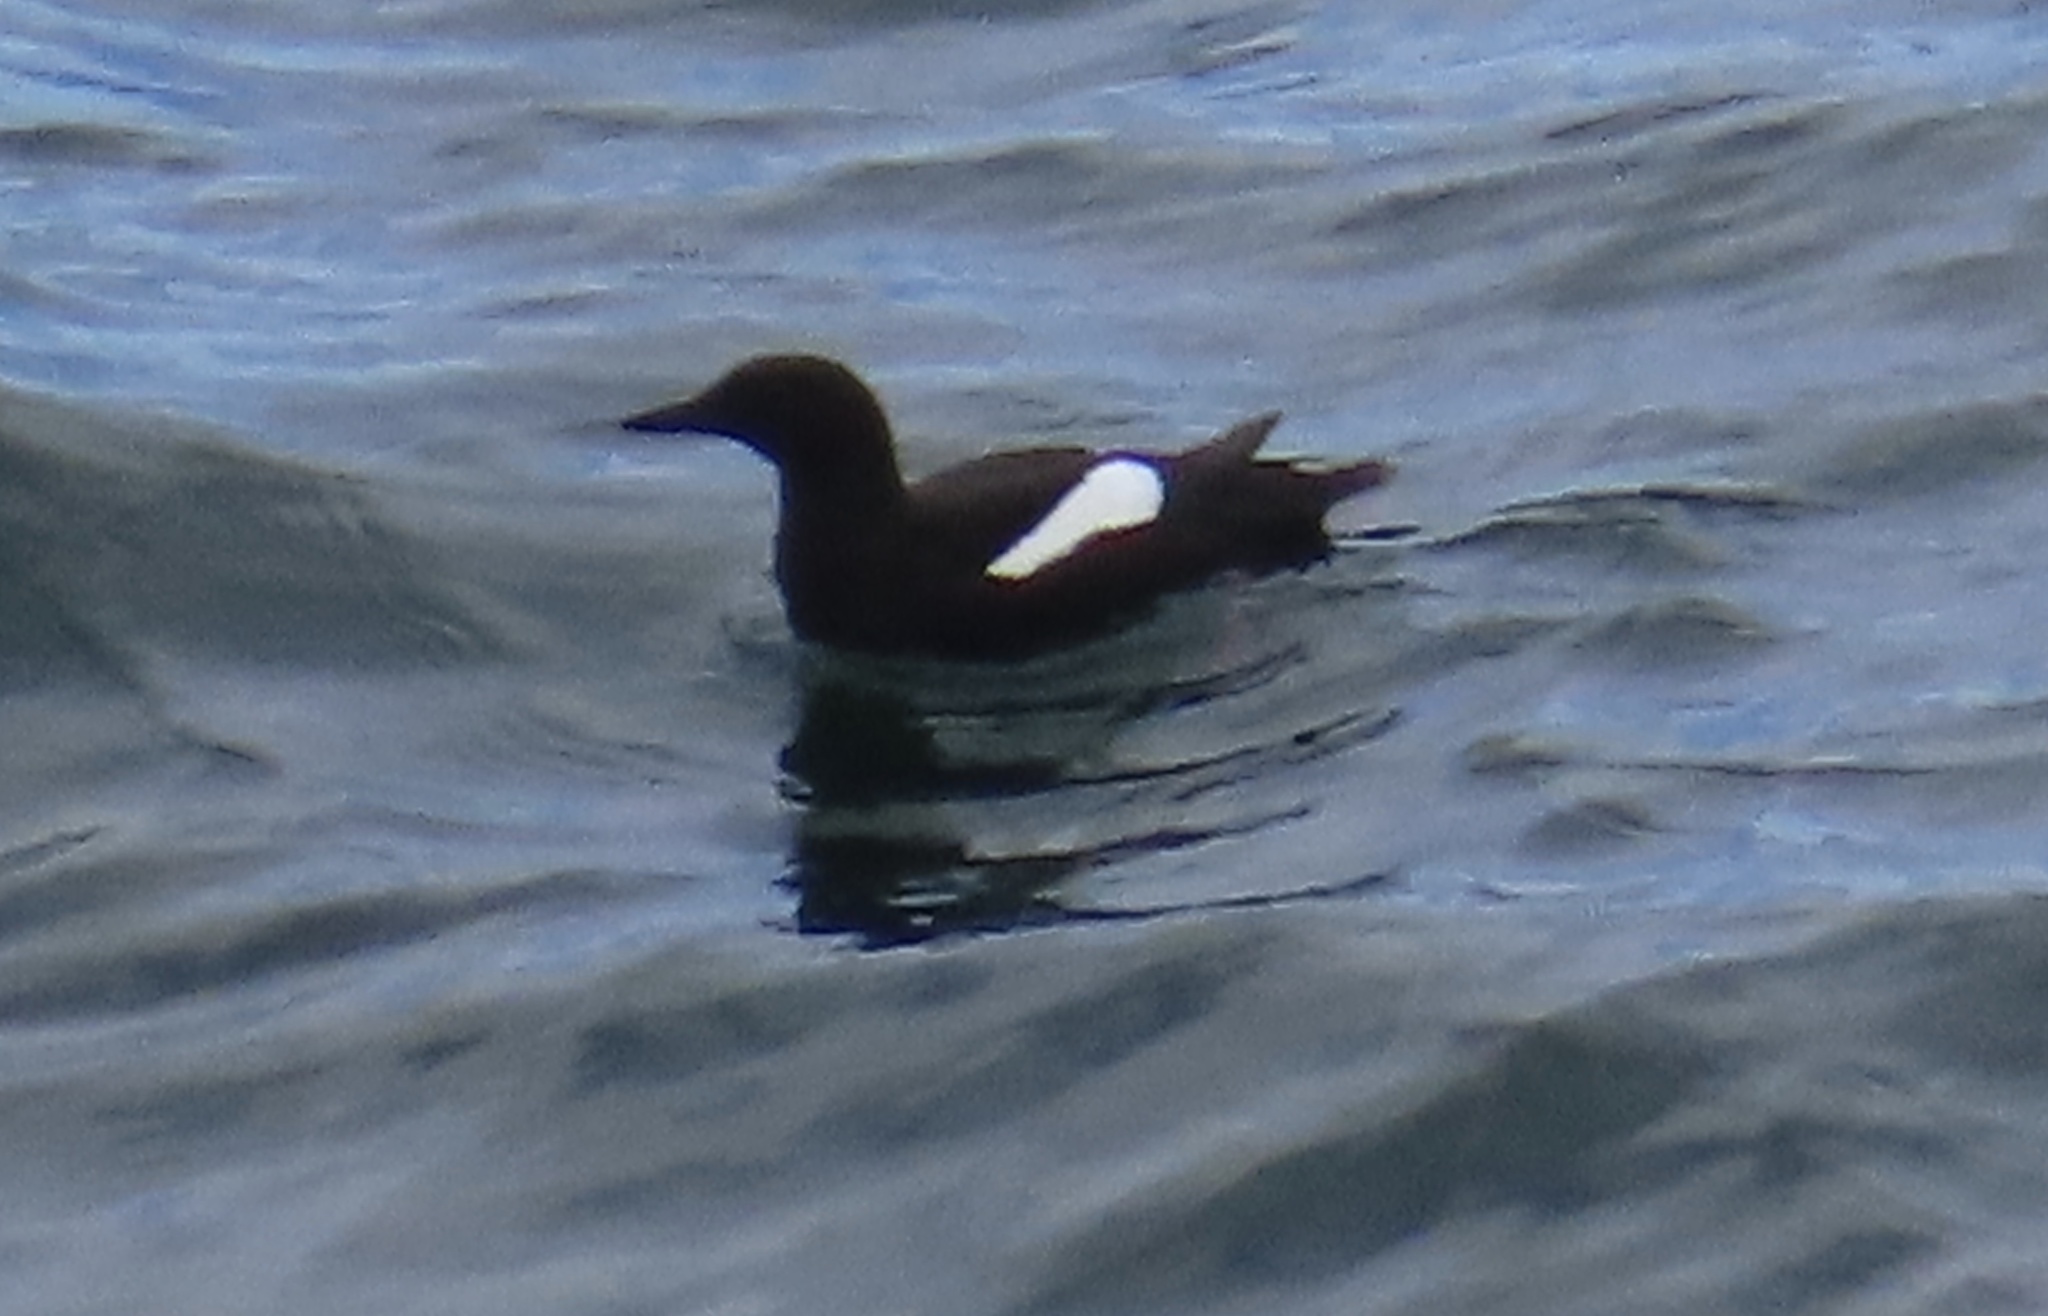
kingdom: Animalia
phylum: Chordata
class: Aves
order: Charadriiformes
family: Alcidae
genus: Cepphus
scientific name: Cepphus grylle
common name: Black guillemot
